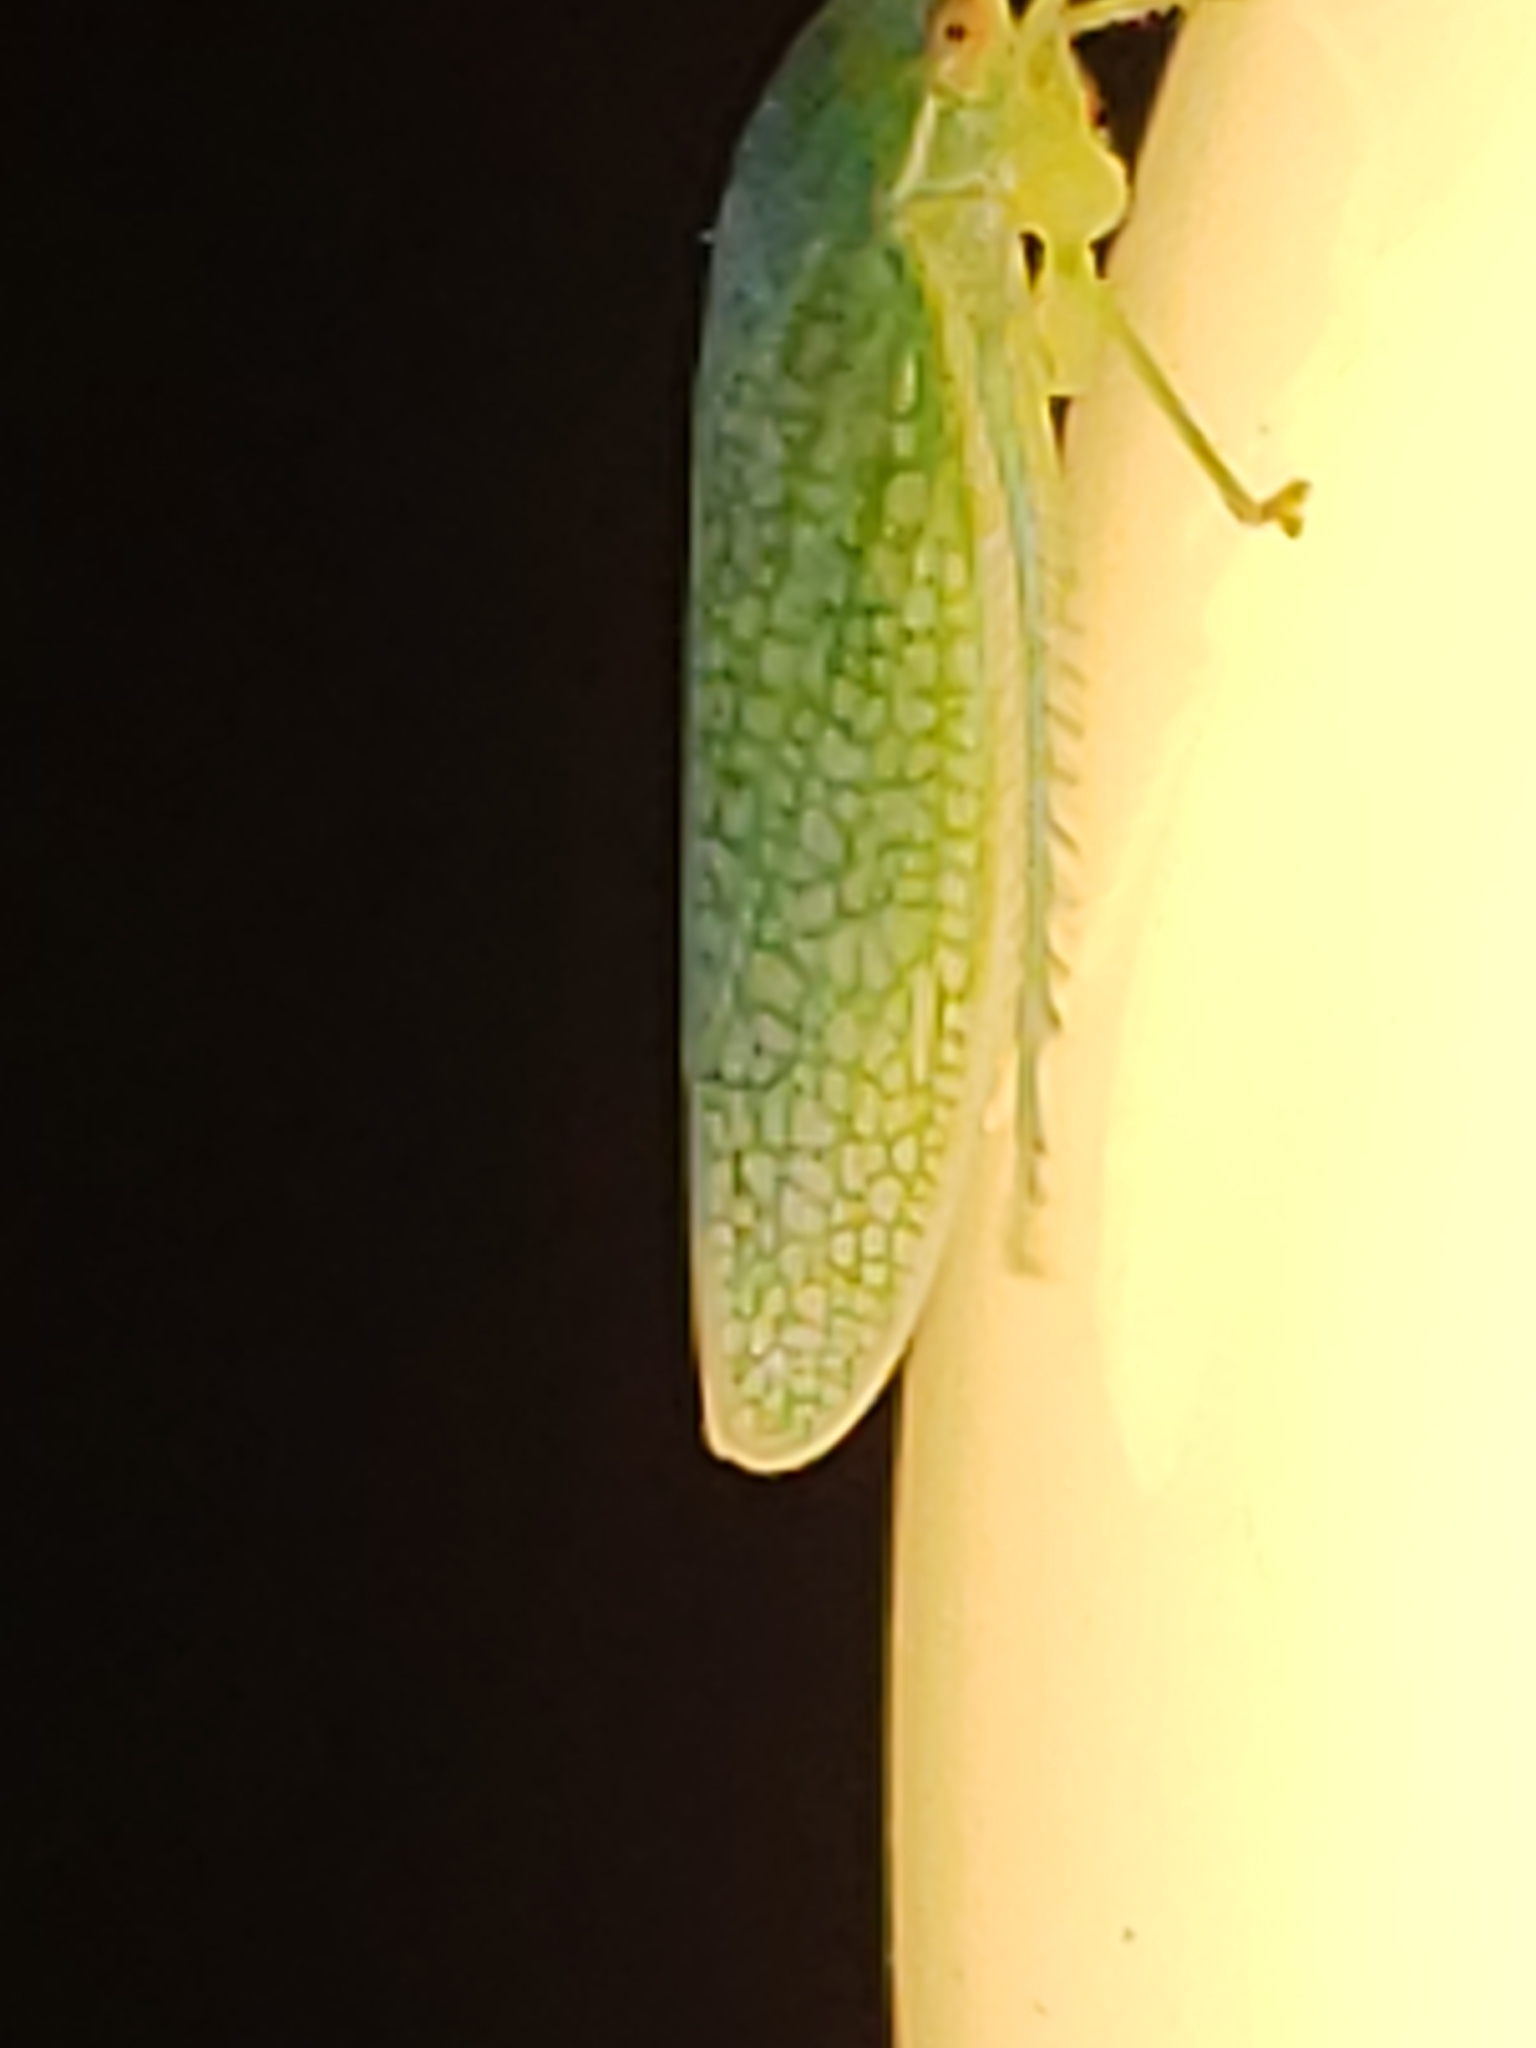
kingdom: Animalia
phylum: Arthropoda
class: Insecta
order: Hemiptera
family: Cicadellidae
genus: Gyponana
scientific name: Gyponana procera
